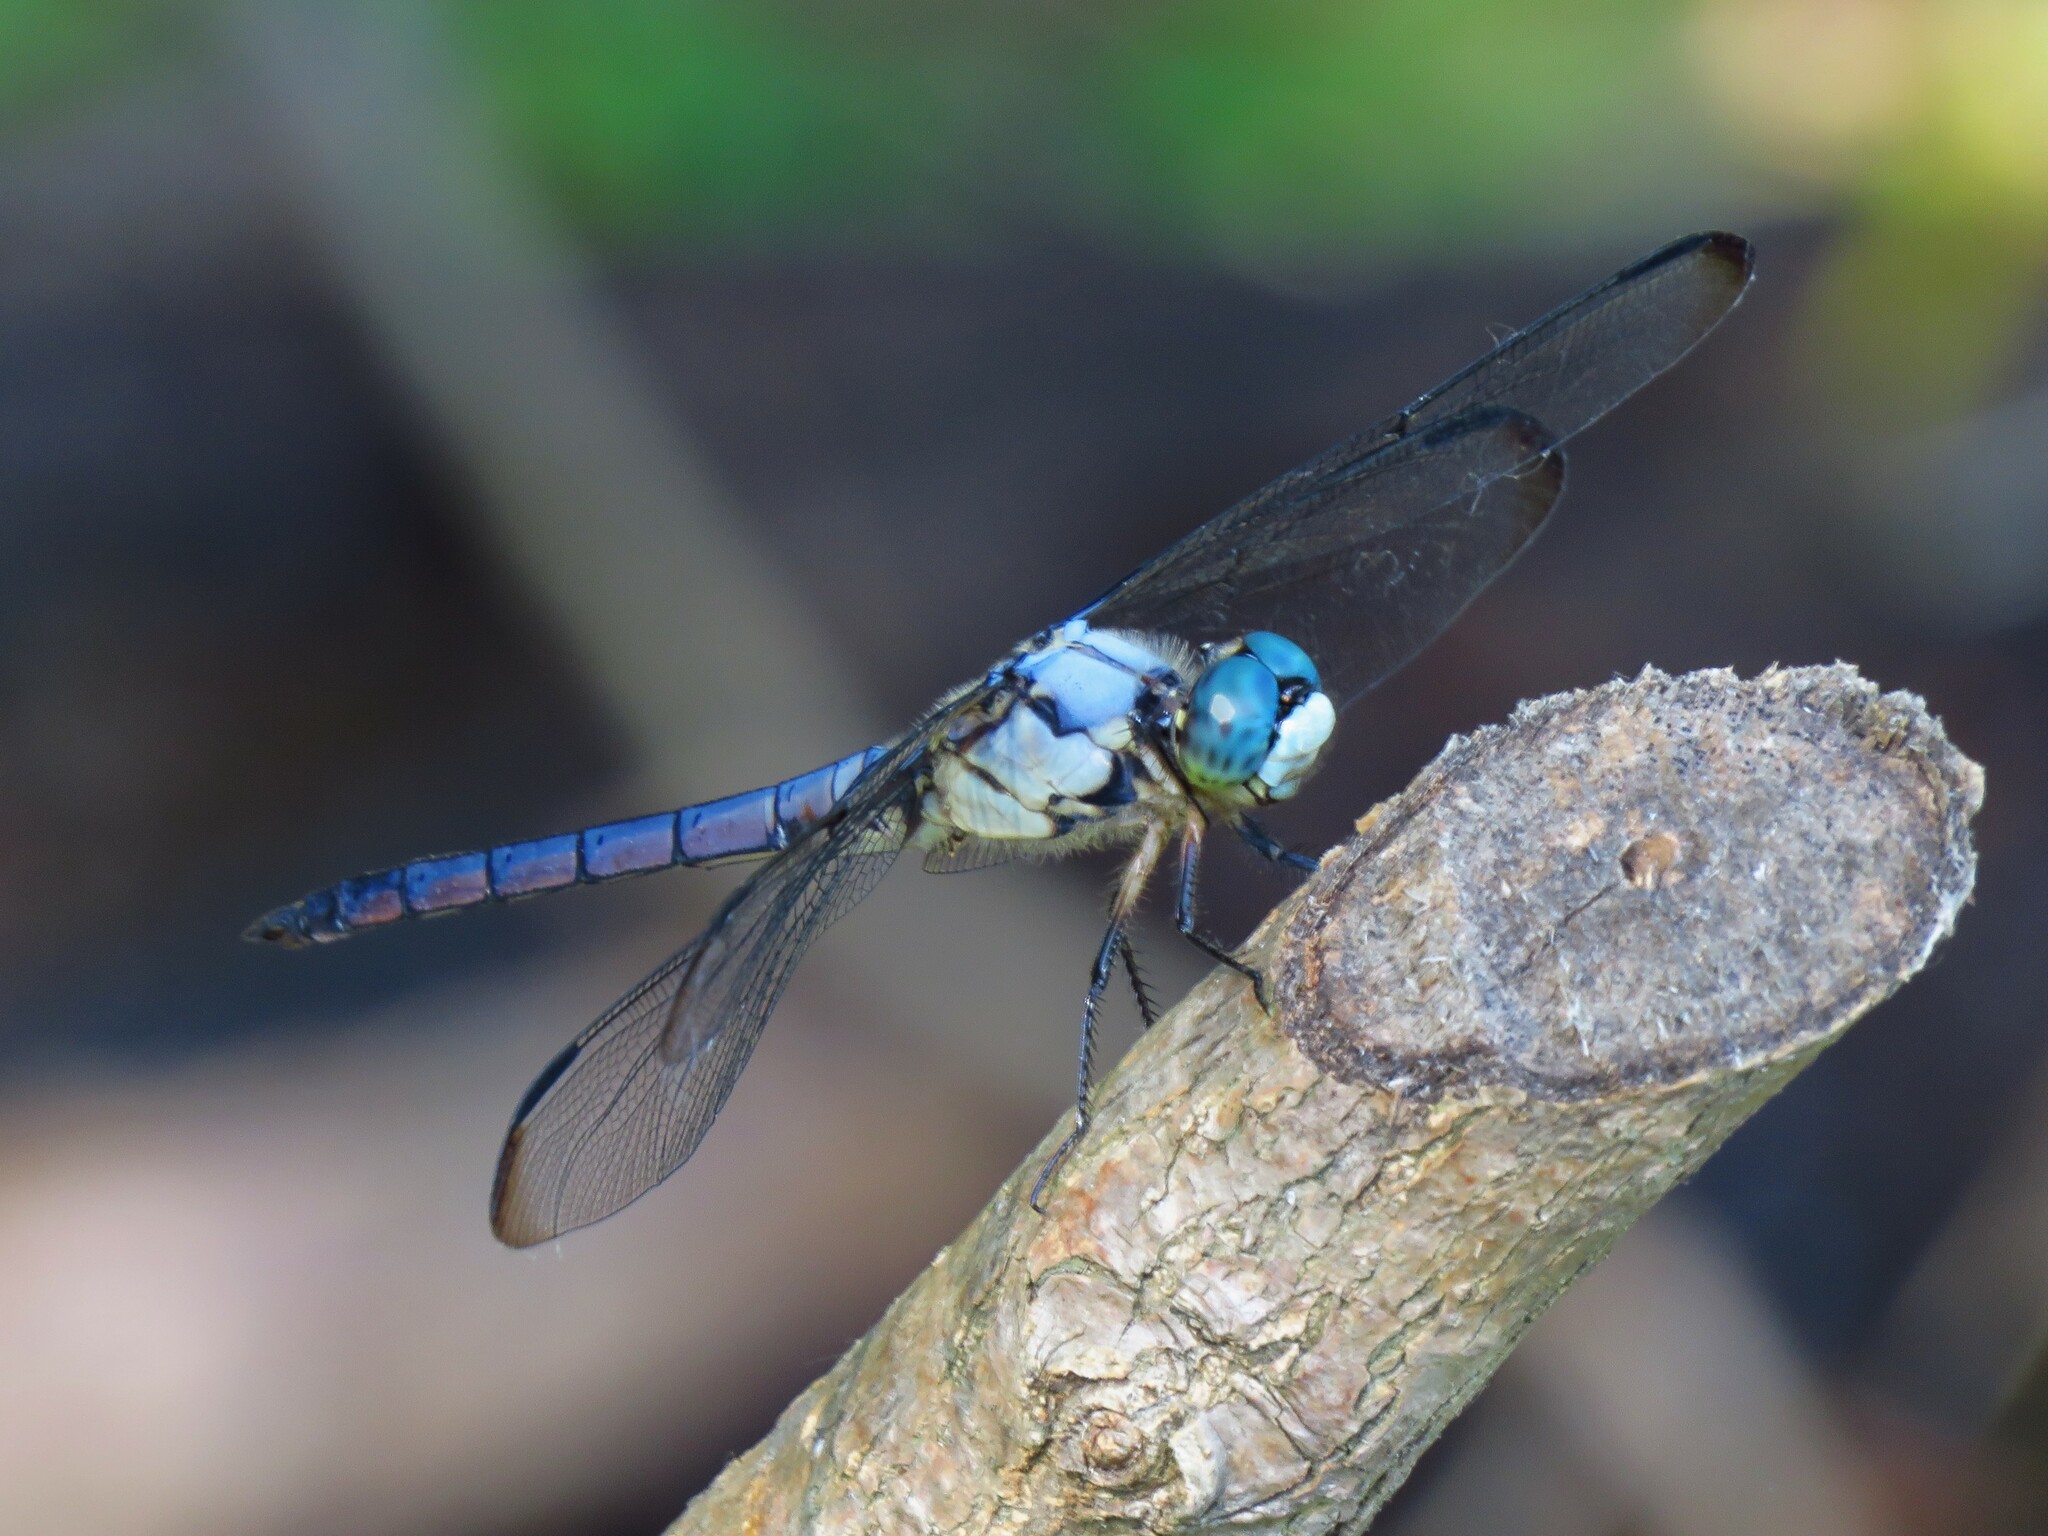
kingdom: Animalia
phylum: Arthropoda
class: Insecta
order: Odonata
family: Libellulidae
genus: Libellula
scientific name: Libellula vibrans
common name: Great blue skimmer
